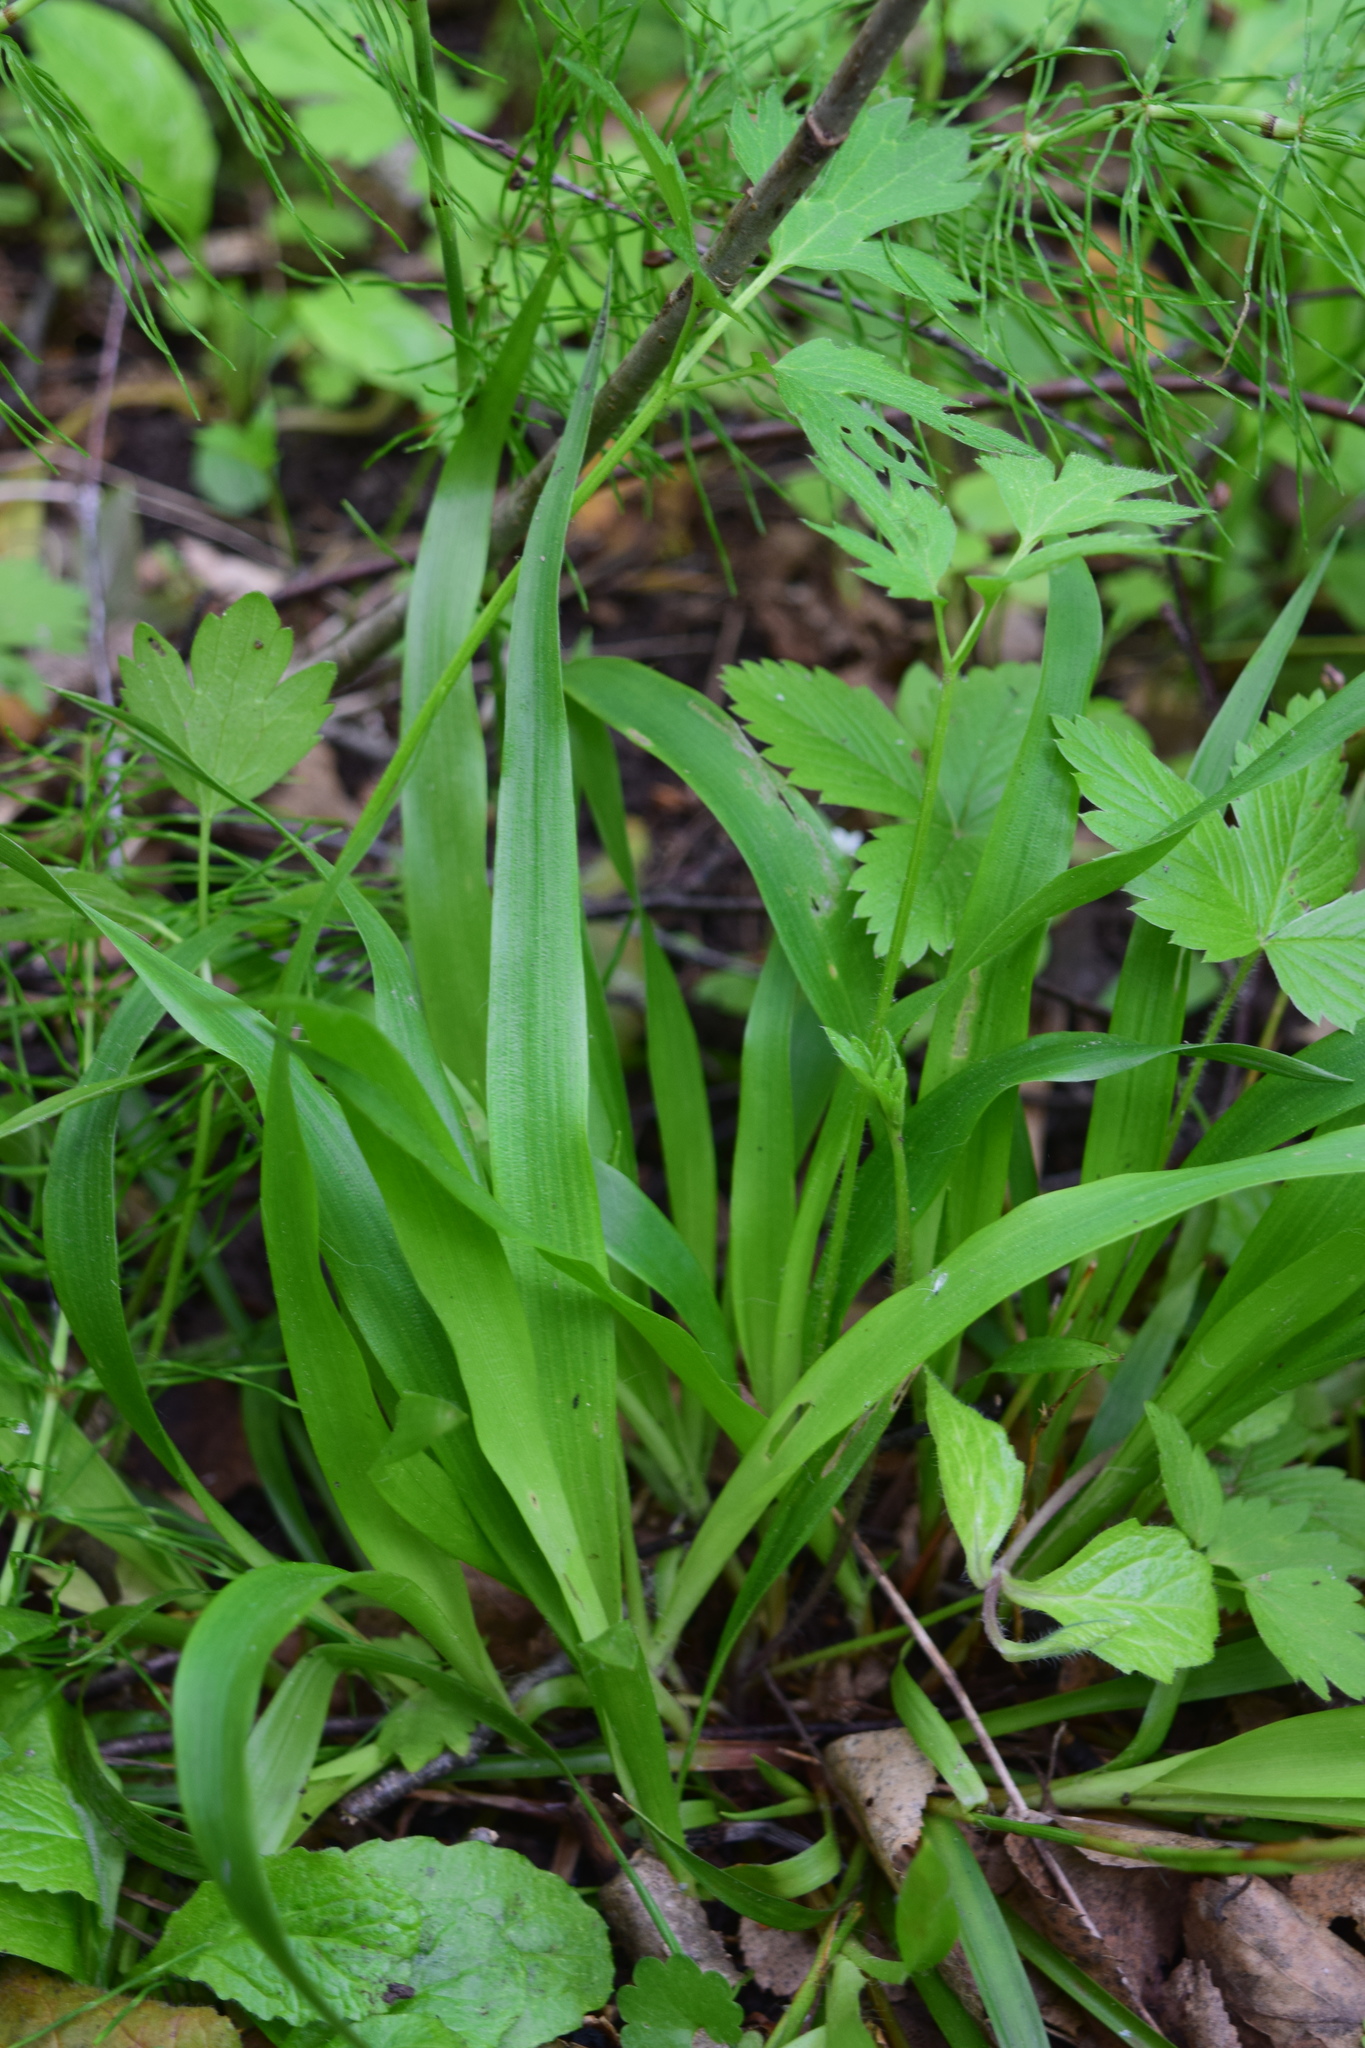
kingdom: Plantae
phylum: Tracheophyta
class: Liliopsida
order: Poales
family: Juncaceae
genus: Luzula
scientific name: Luzula pilosa
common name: Hairy wood-rush
